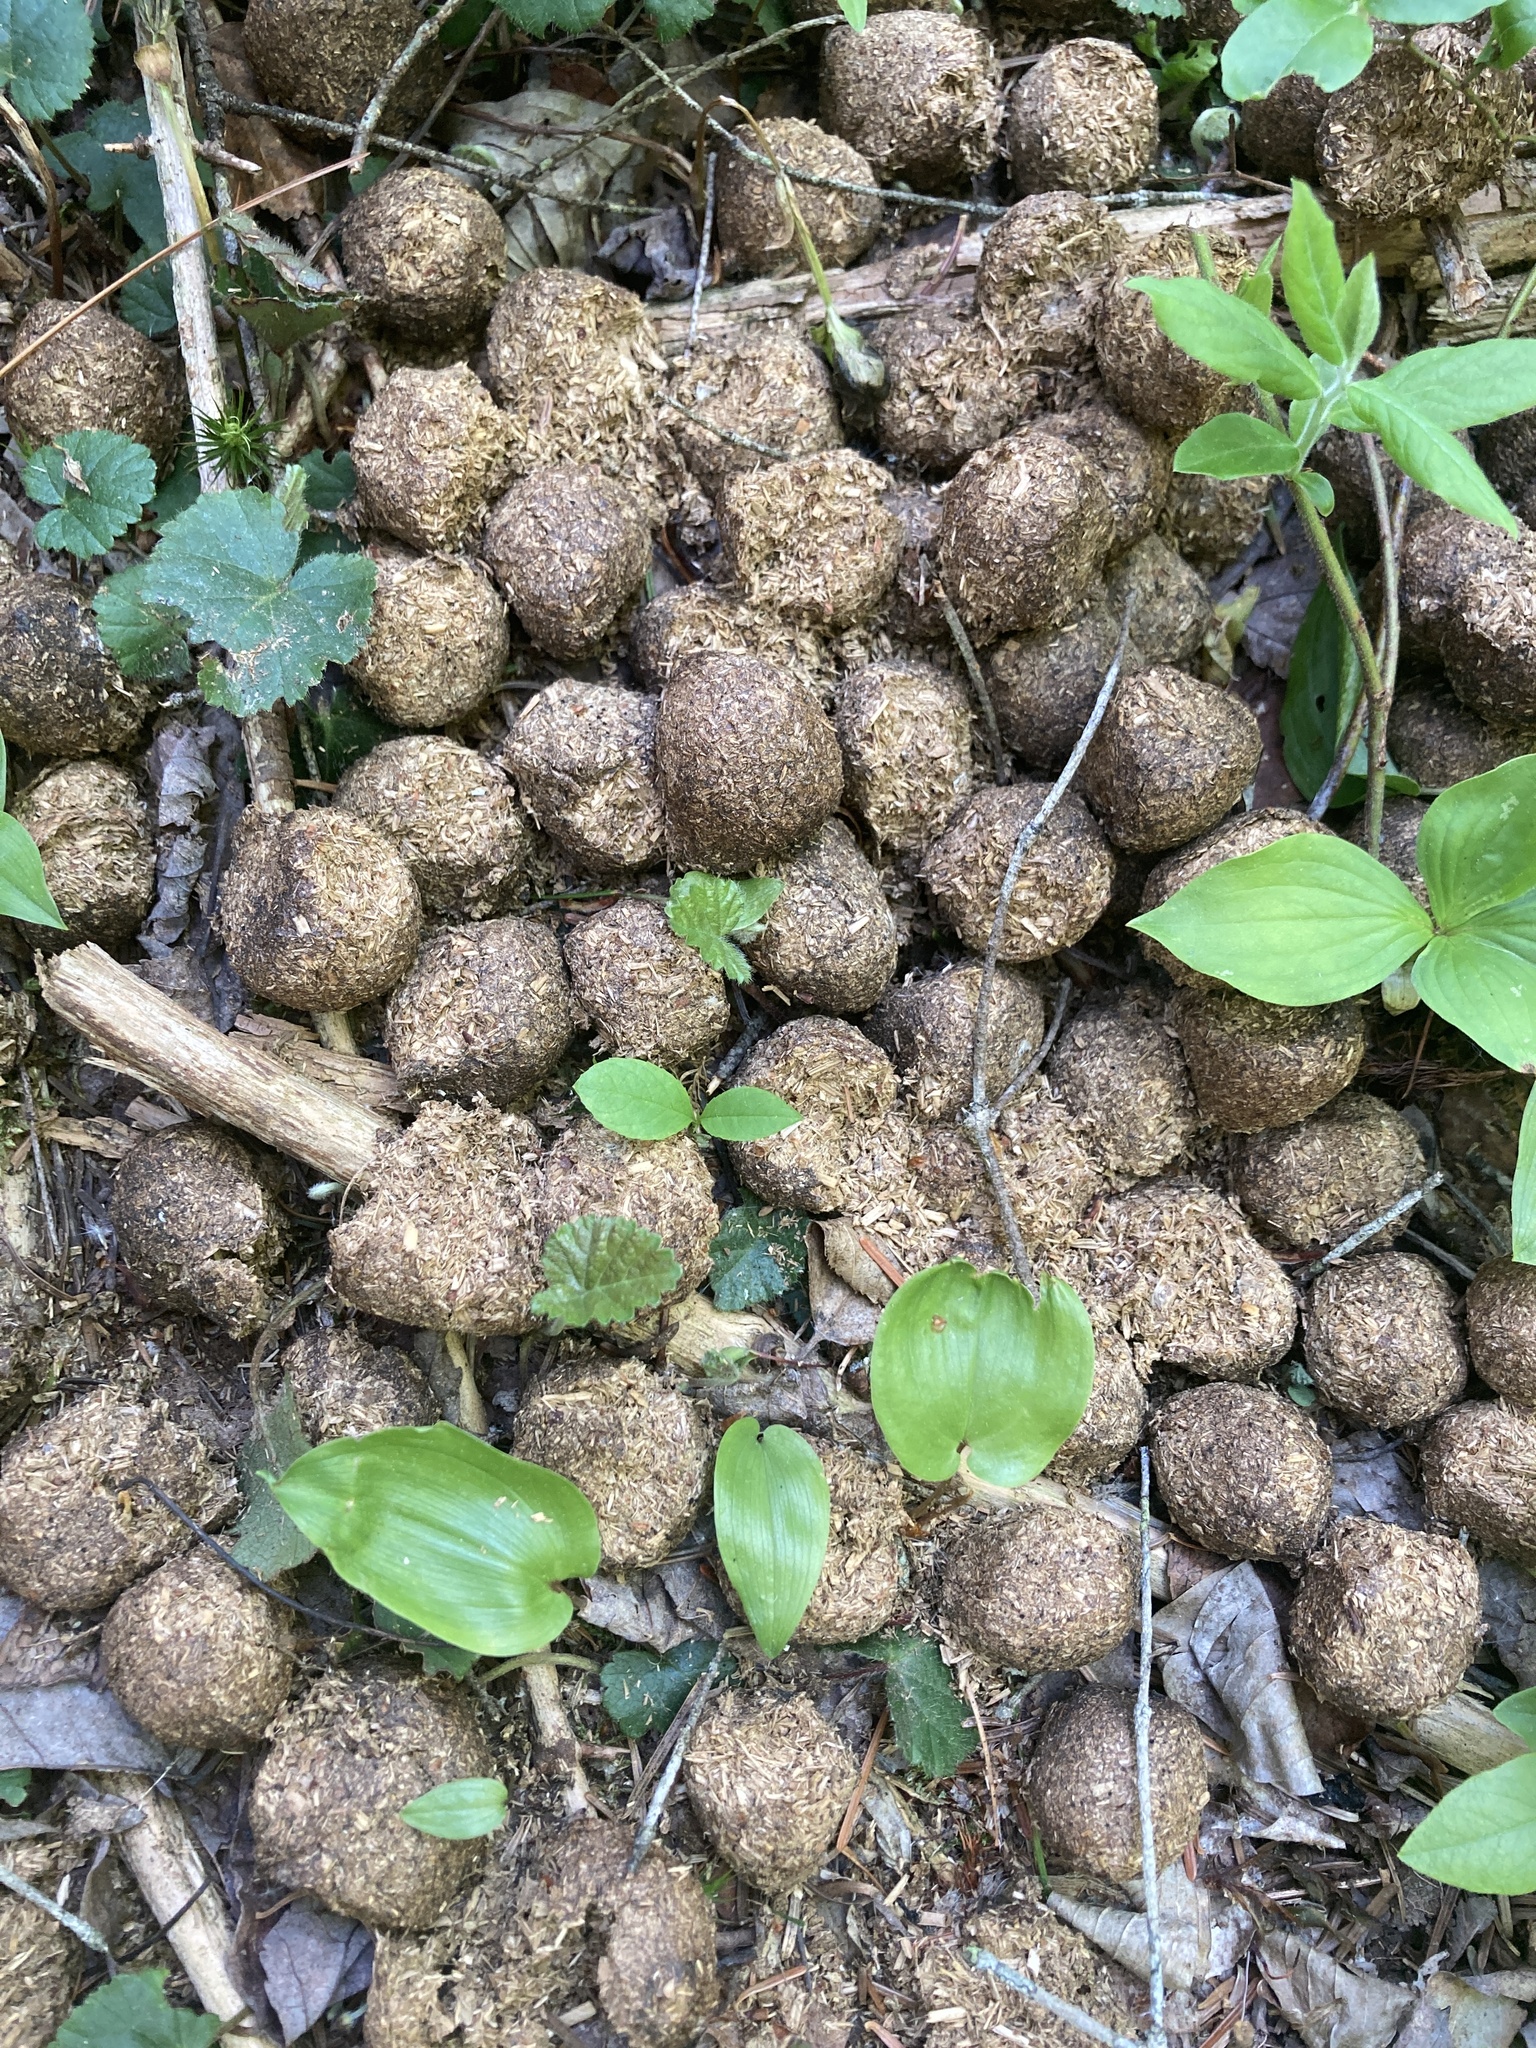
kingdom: Animalia
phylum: Chordata
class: Mammalia
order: Artiodactyla
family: Cervidae
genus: Alces
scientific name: Alces alces
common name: Moose
